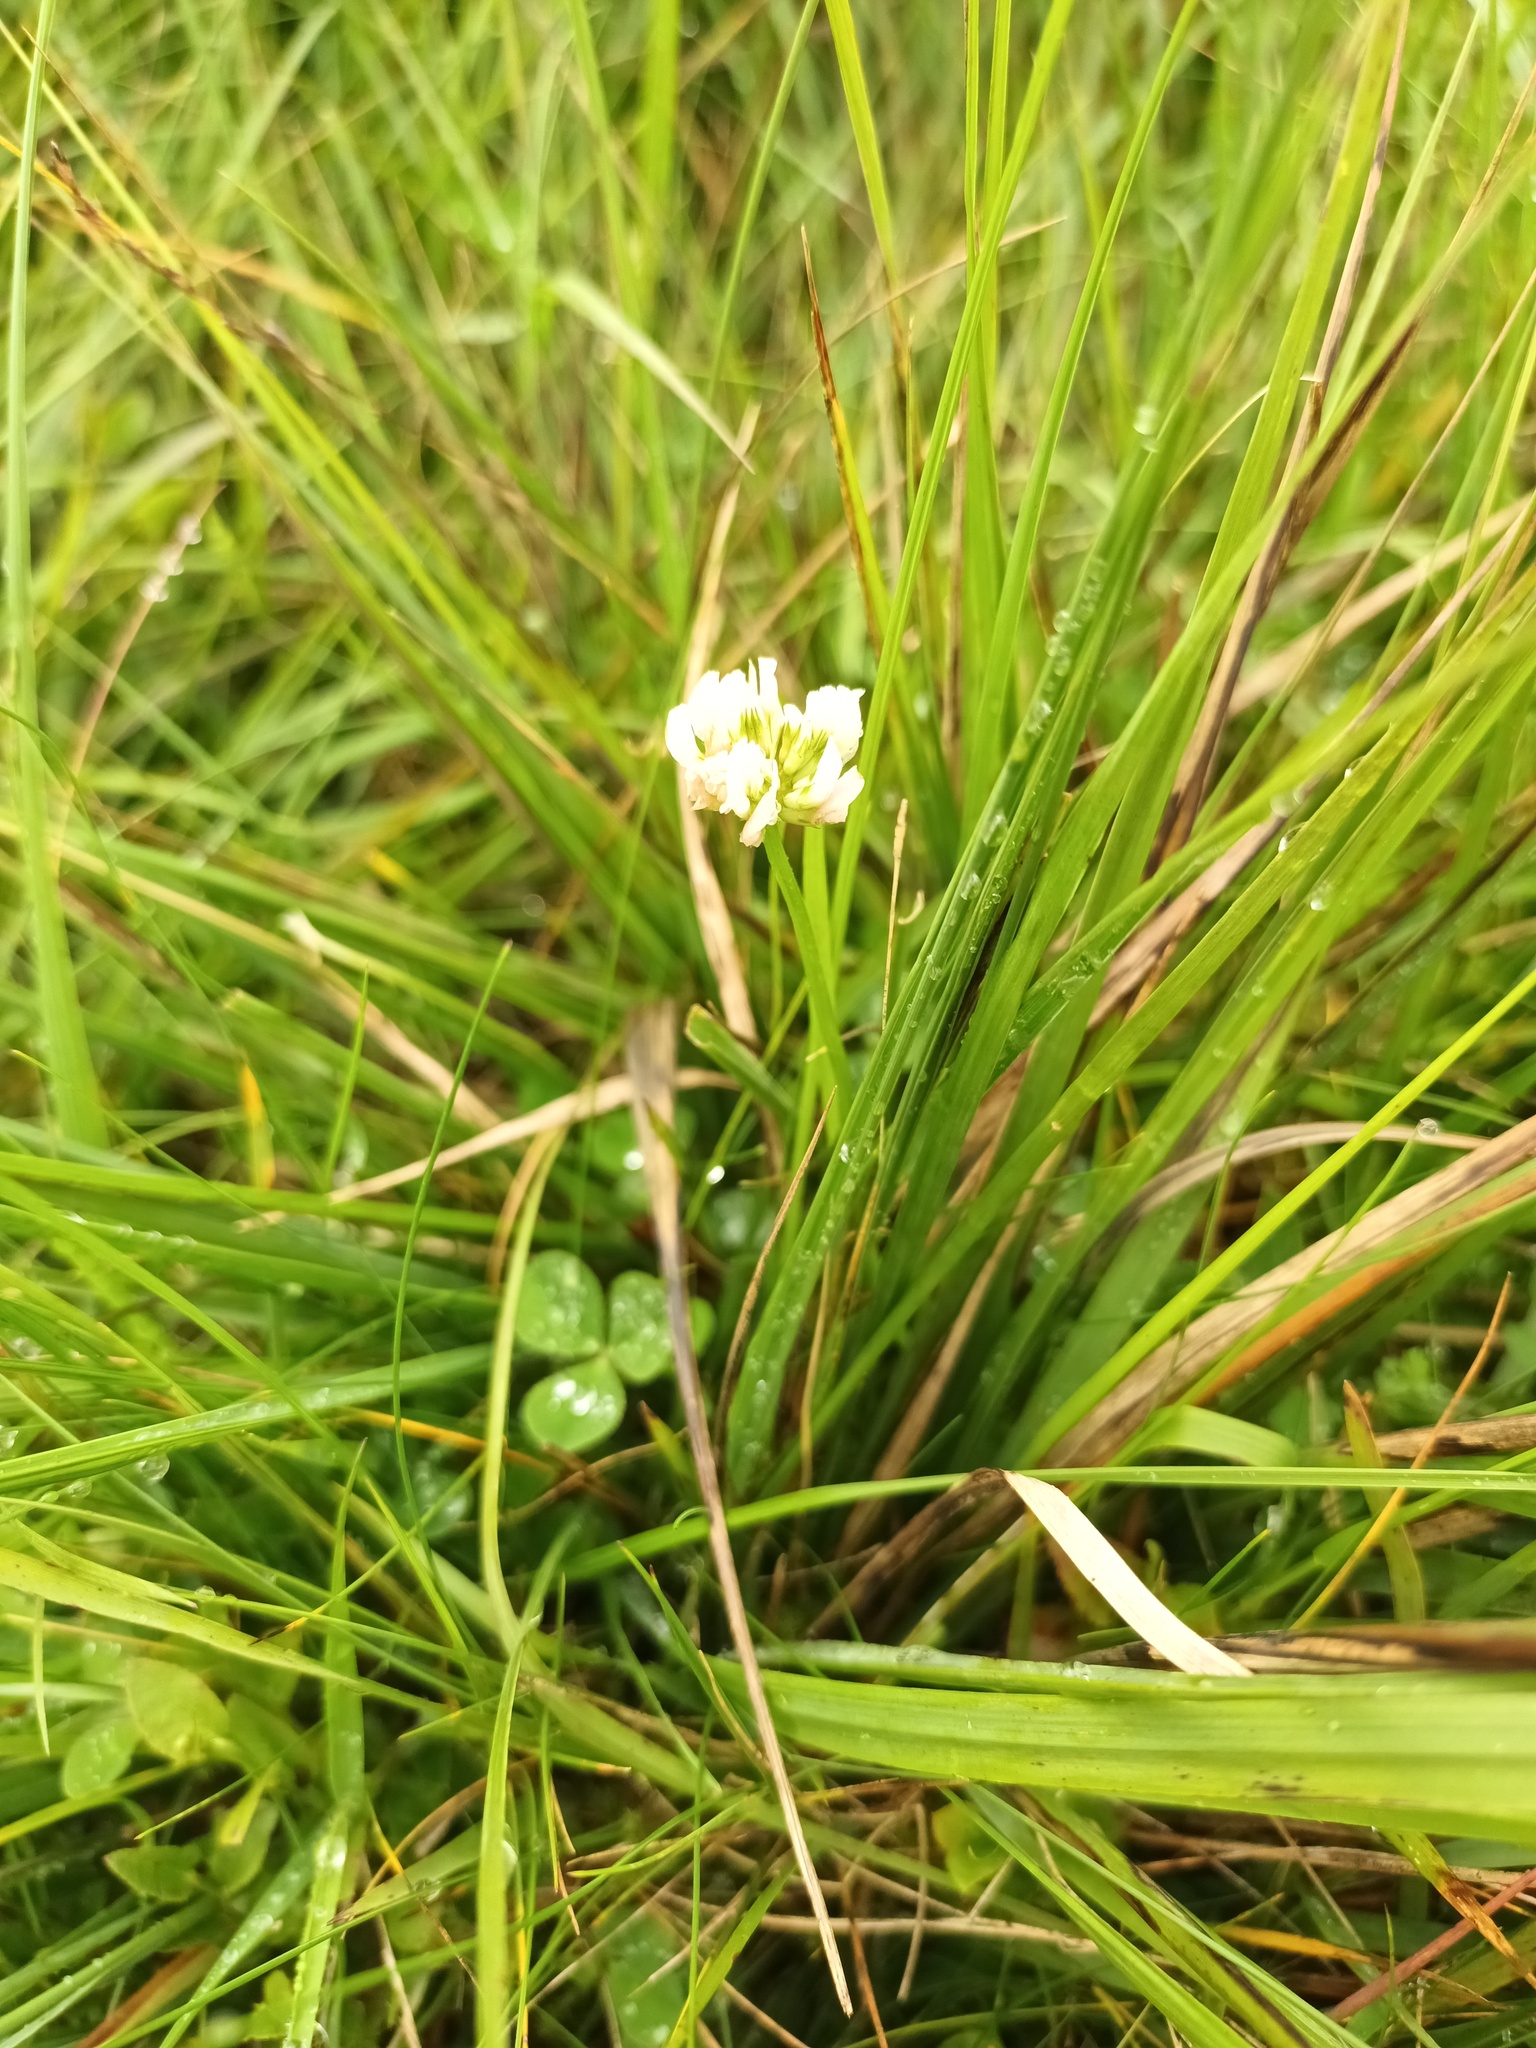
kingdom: Plantae
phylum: Tracheophyta
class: Magnoliopsida
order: Fabales
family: Fabaceae
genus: Trifolium
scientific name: Trifolium repens
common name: White clover
